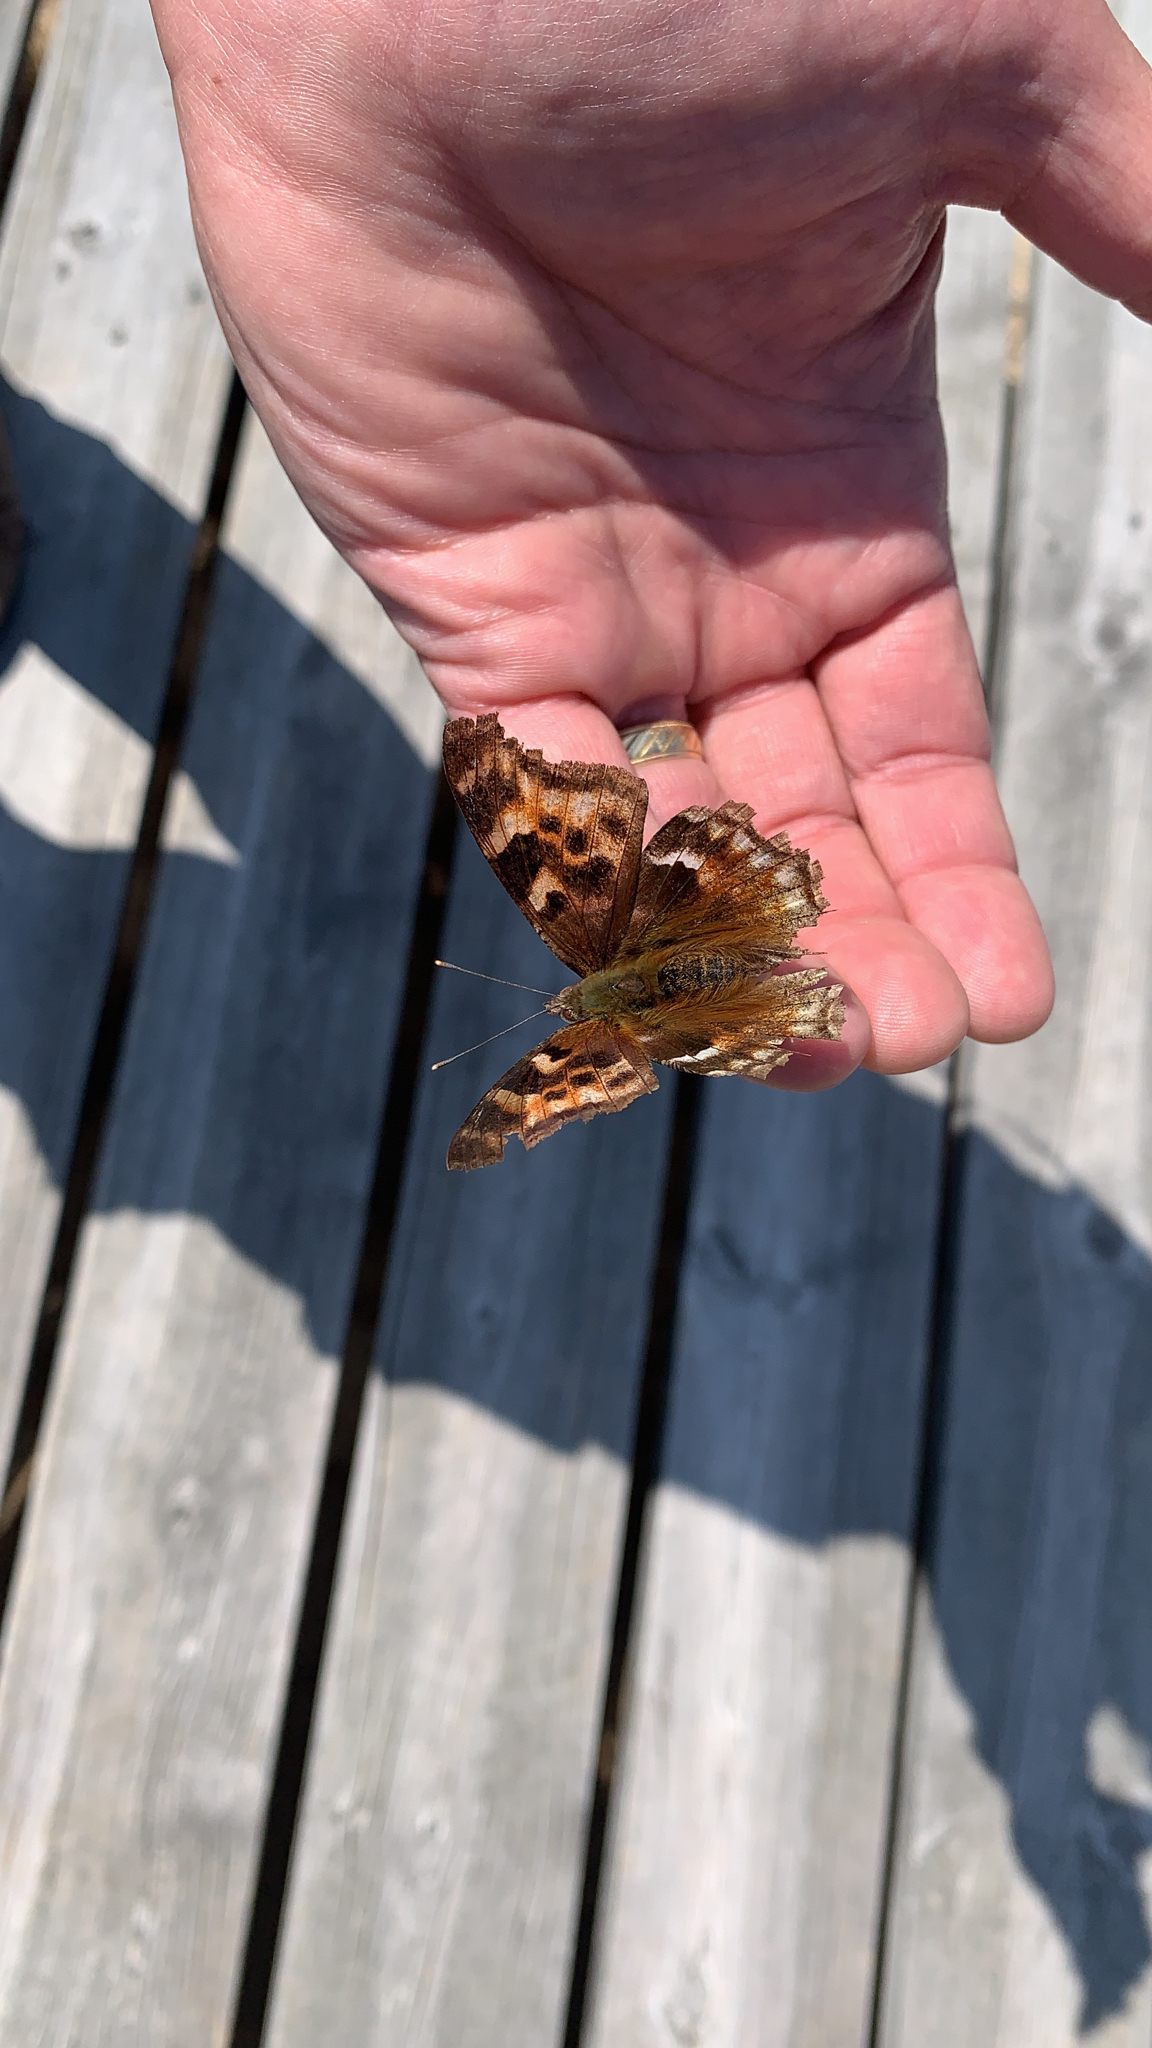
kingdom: Animalia
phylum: Arthropoda
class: Insecta
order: Lepidoptera
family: Nymphalidae
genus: Polygonia
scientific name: Polygonia vaualbum
